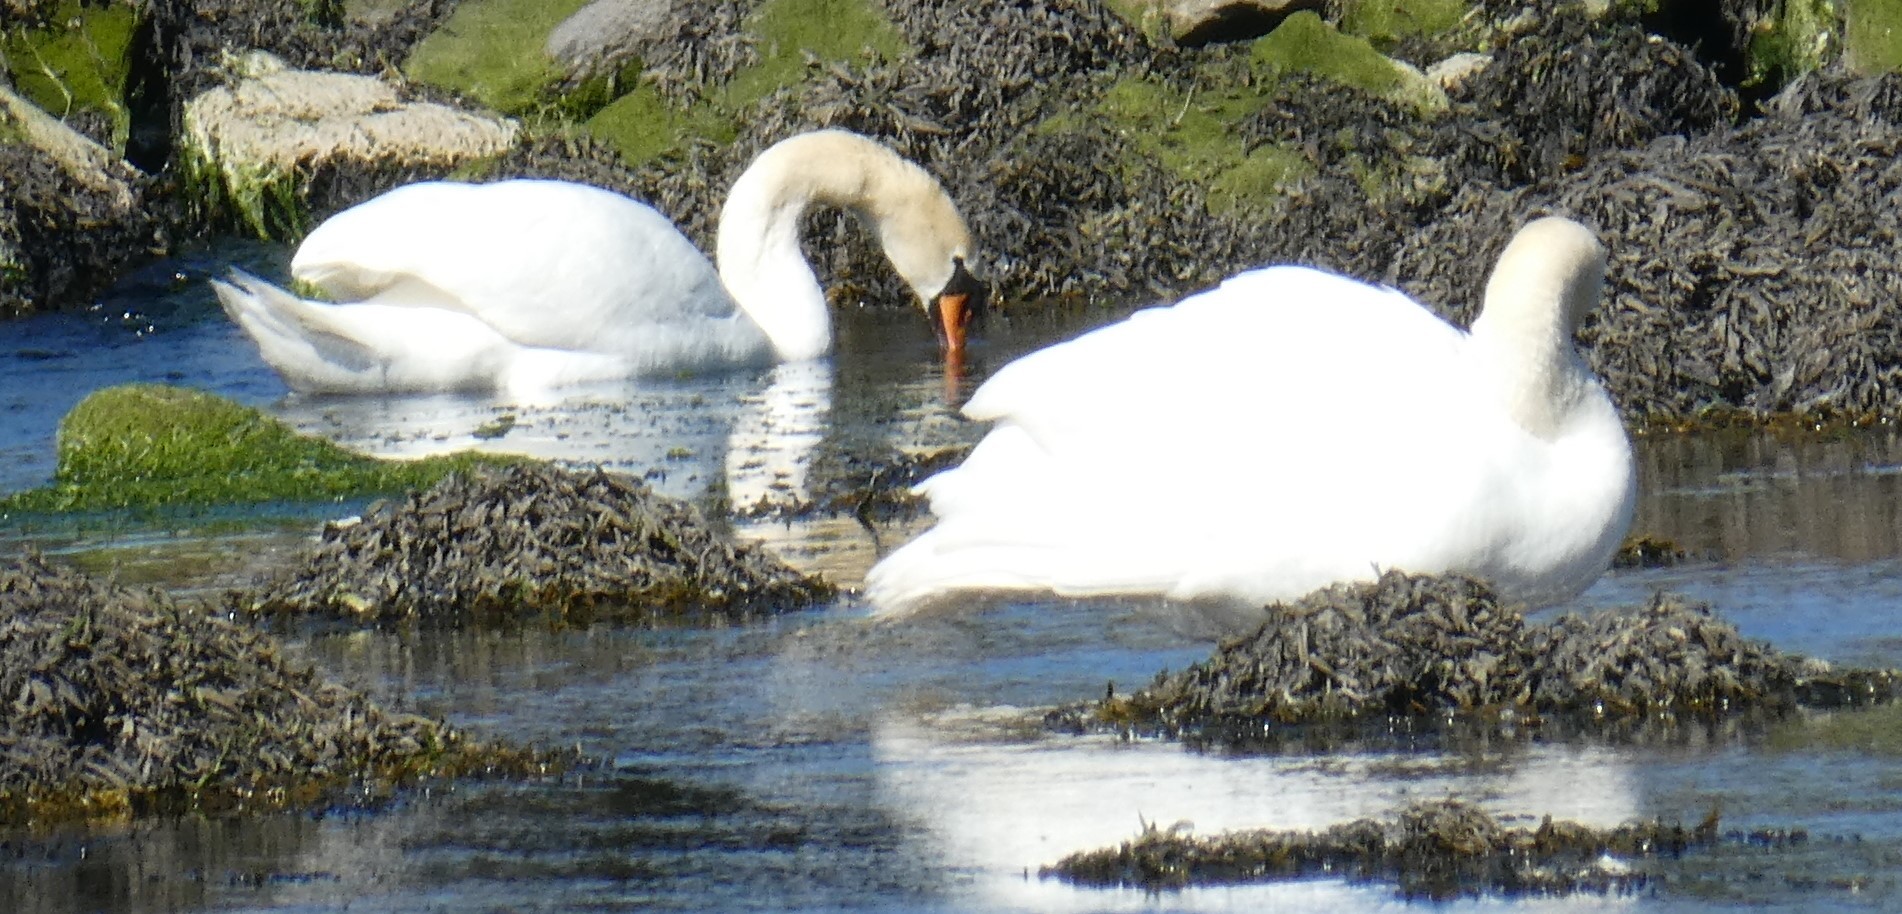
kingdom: Animalia
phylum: Chordata
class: Aves
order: Anseriformes
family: Anatidae
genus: Cygnus
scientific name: Cygnus olor
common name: Mute swan
